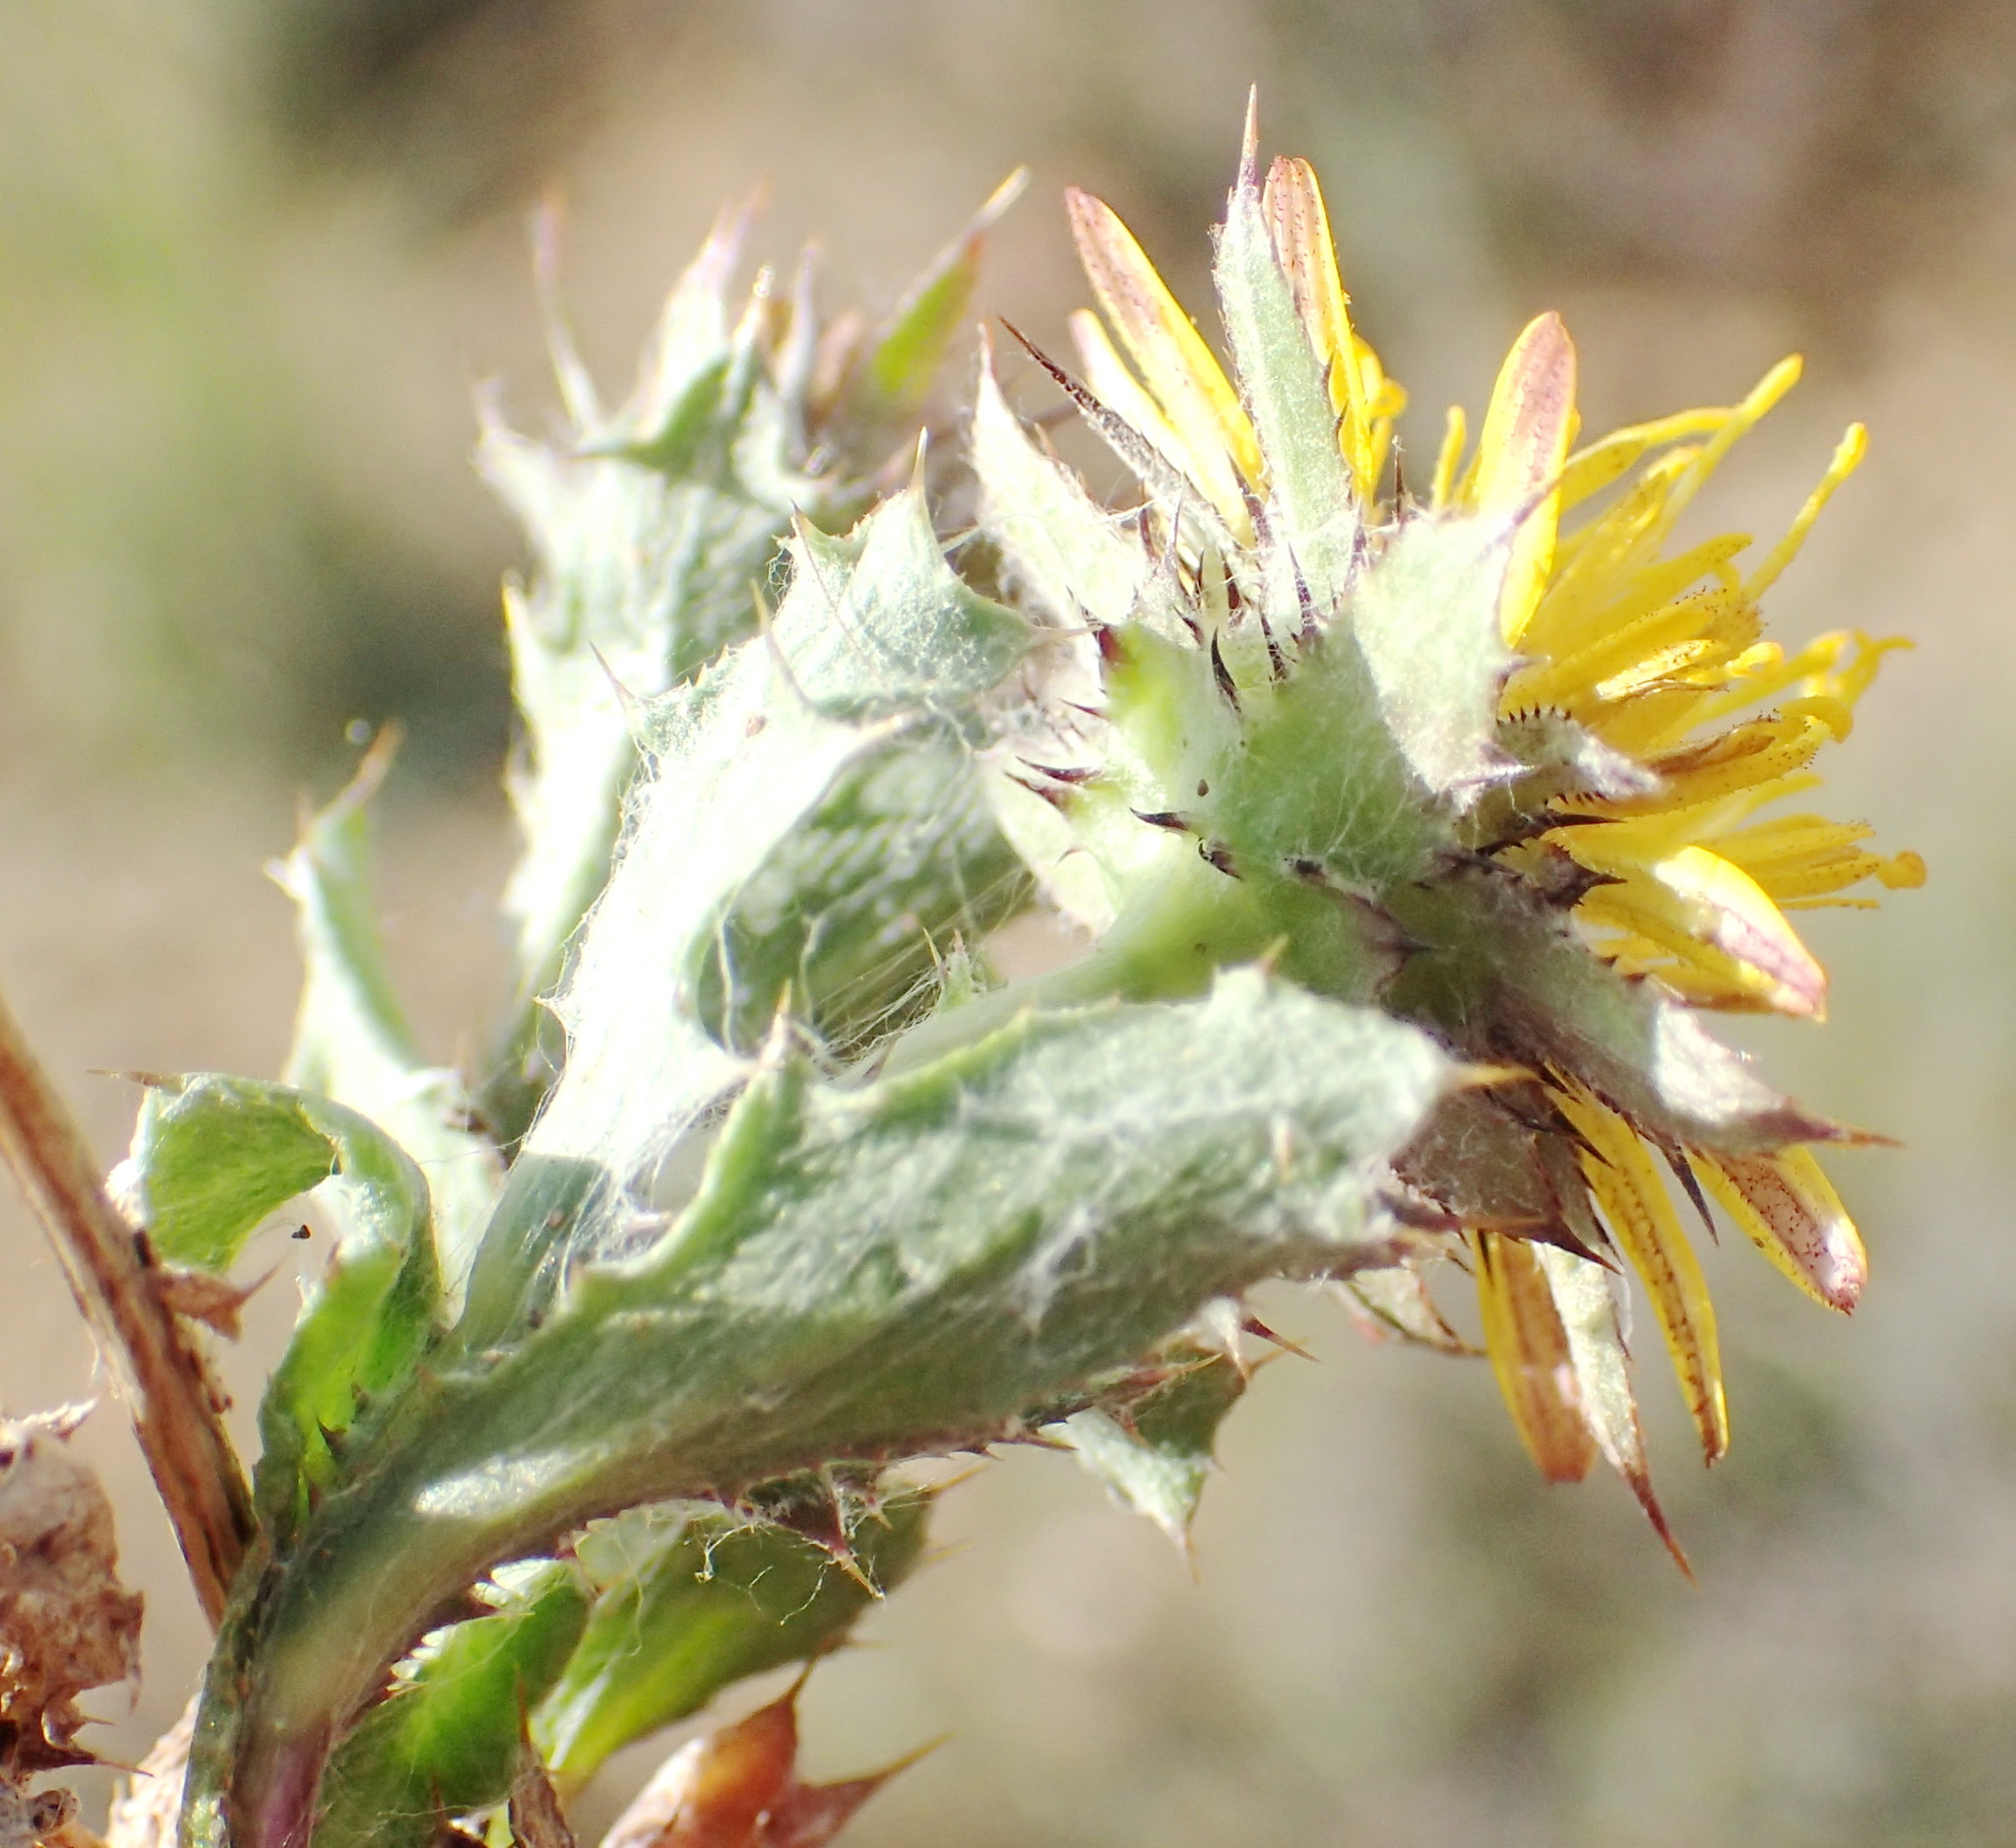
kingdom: Plantae
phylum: Tracheophyta
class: Magnoliopsida
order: Asterales
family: Asteraceae
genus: Cuspidia
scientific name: Cuspidia cernua
